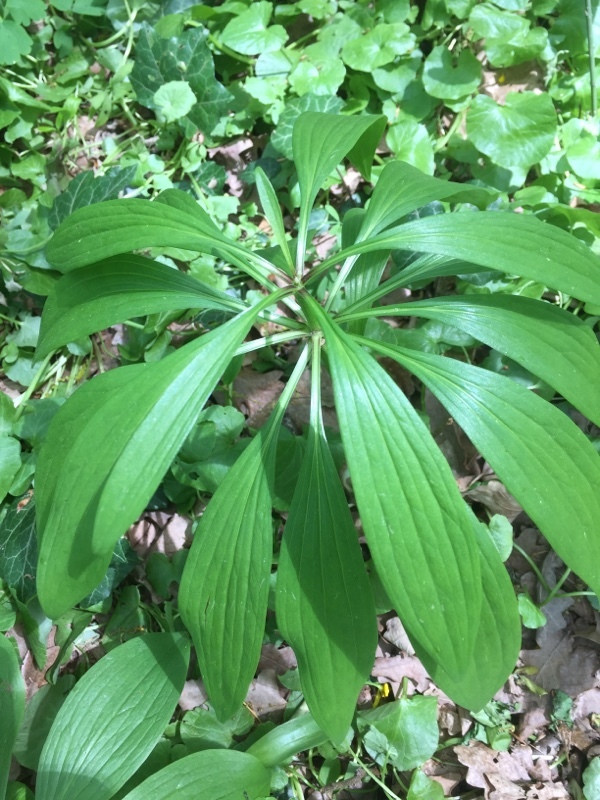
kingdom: Plantae
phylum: Tracheophyta
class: Liliopsida
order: Liliales
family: Liliaceae
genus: Lilium
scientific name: Lilium martagon
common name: Martagon lily
